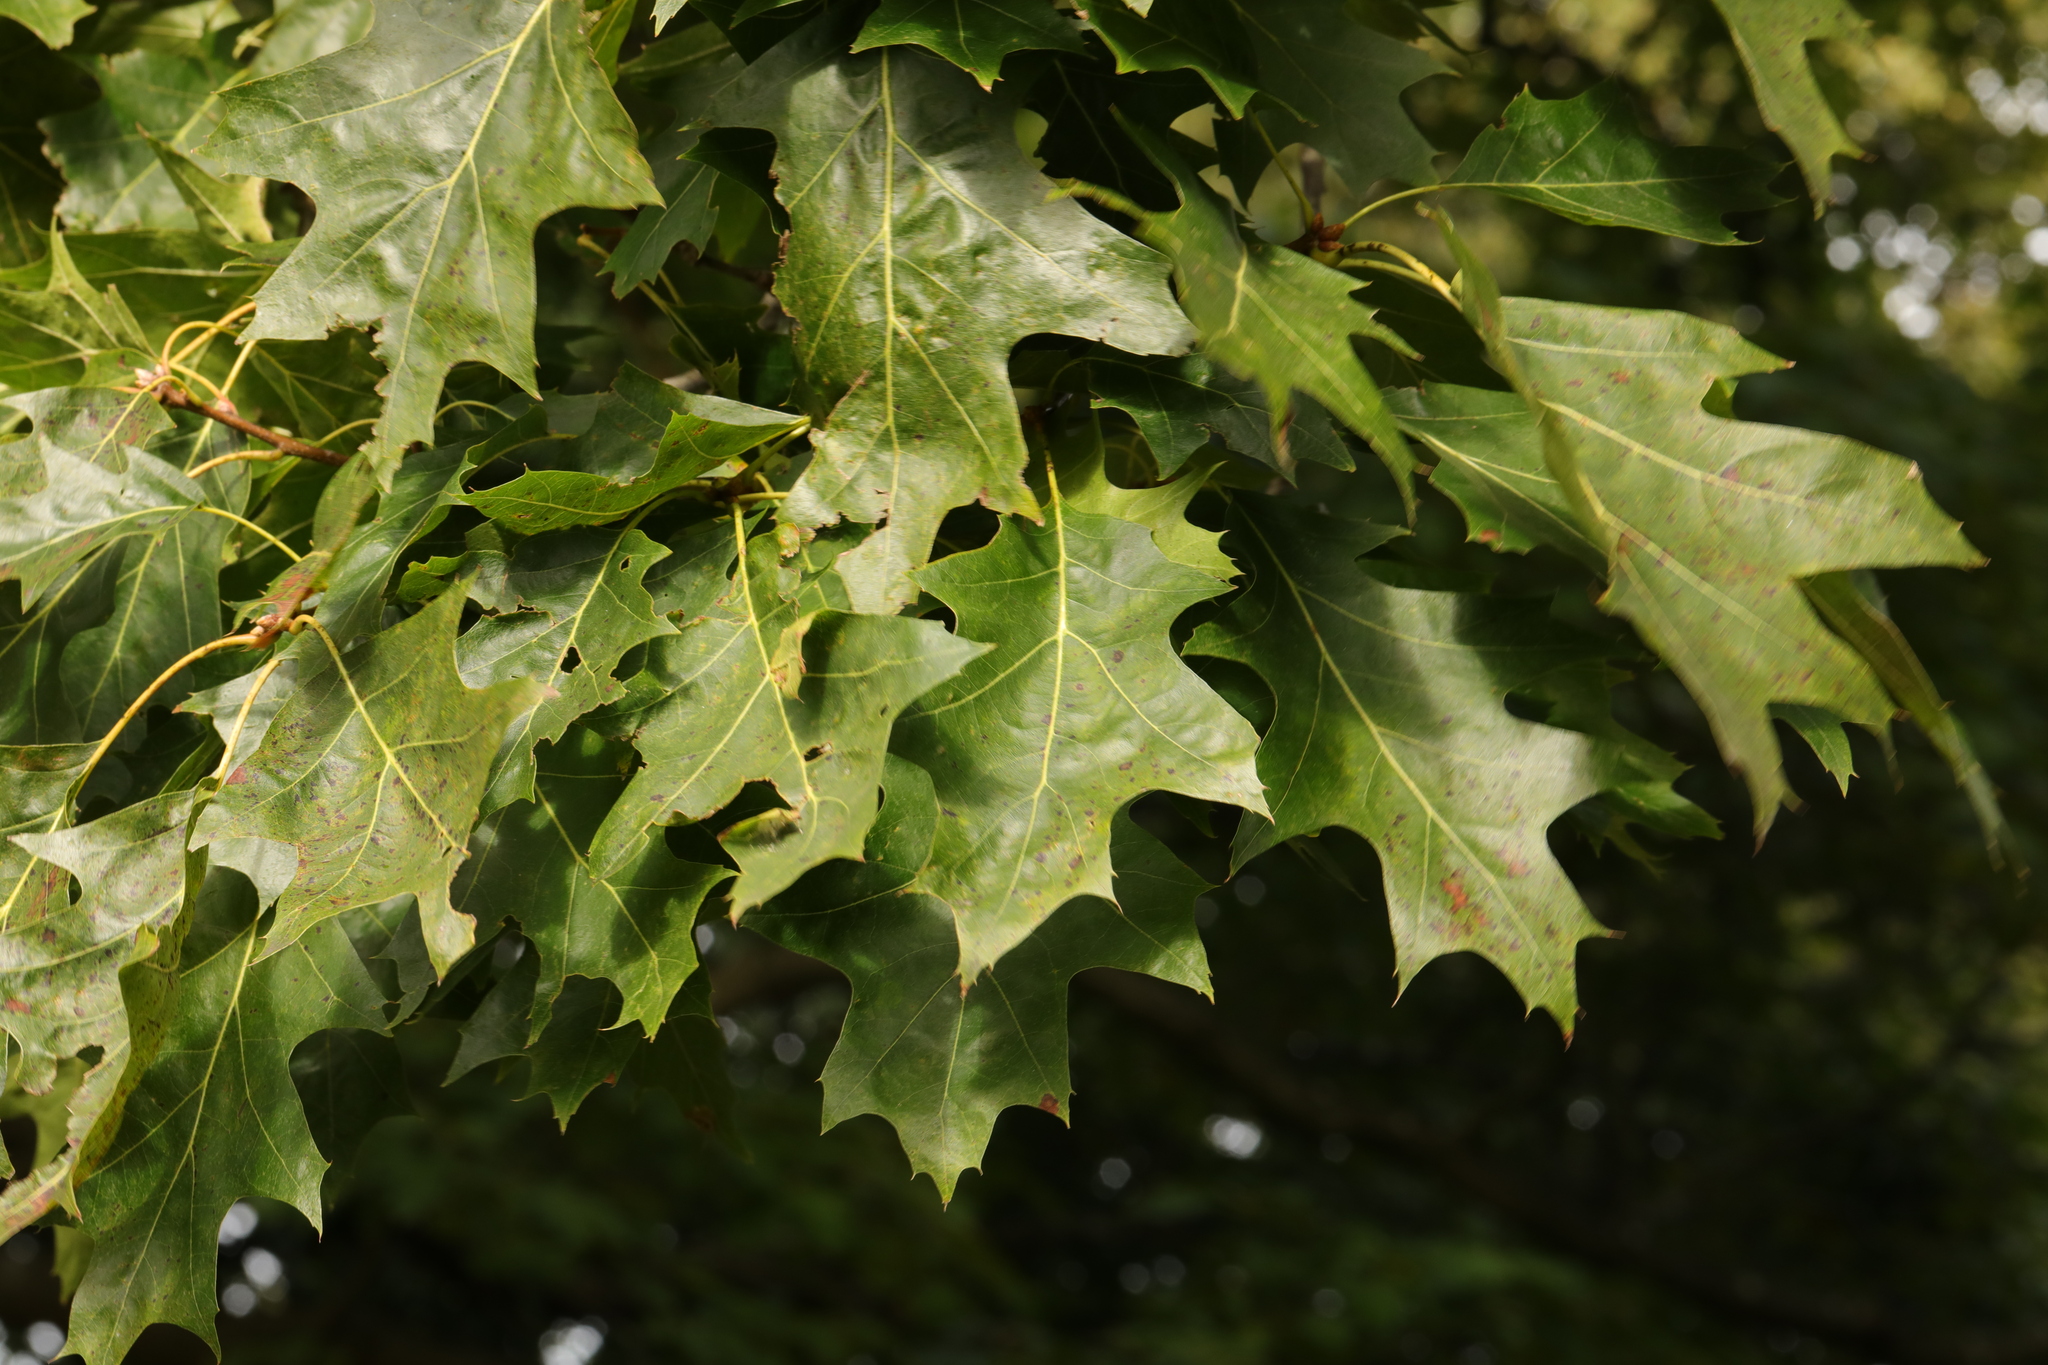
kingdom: Plantae
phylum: Tracheophyta
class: Magnoliopsida
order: Fagales
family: Fagaceae
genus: Quercus
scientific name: Quercus rubra
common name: Red oak
